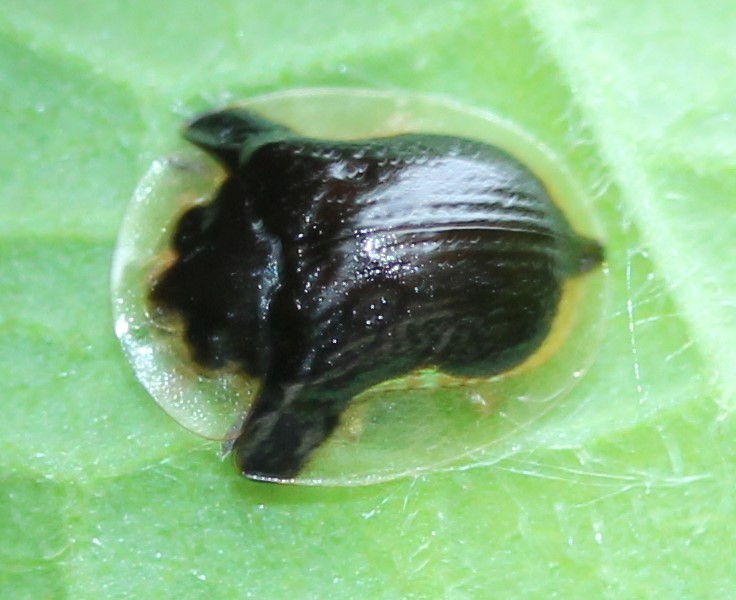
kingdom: Animalia
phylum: Arthropoda
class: Insecta
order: Coleoptera
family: Chrysomelidae
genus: Deloyala
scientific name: Deloyala guttata
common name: Mottled tortoise beetle
